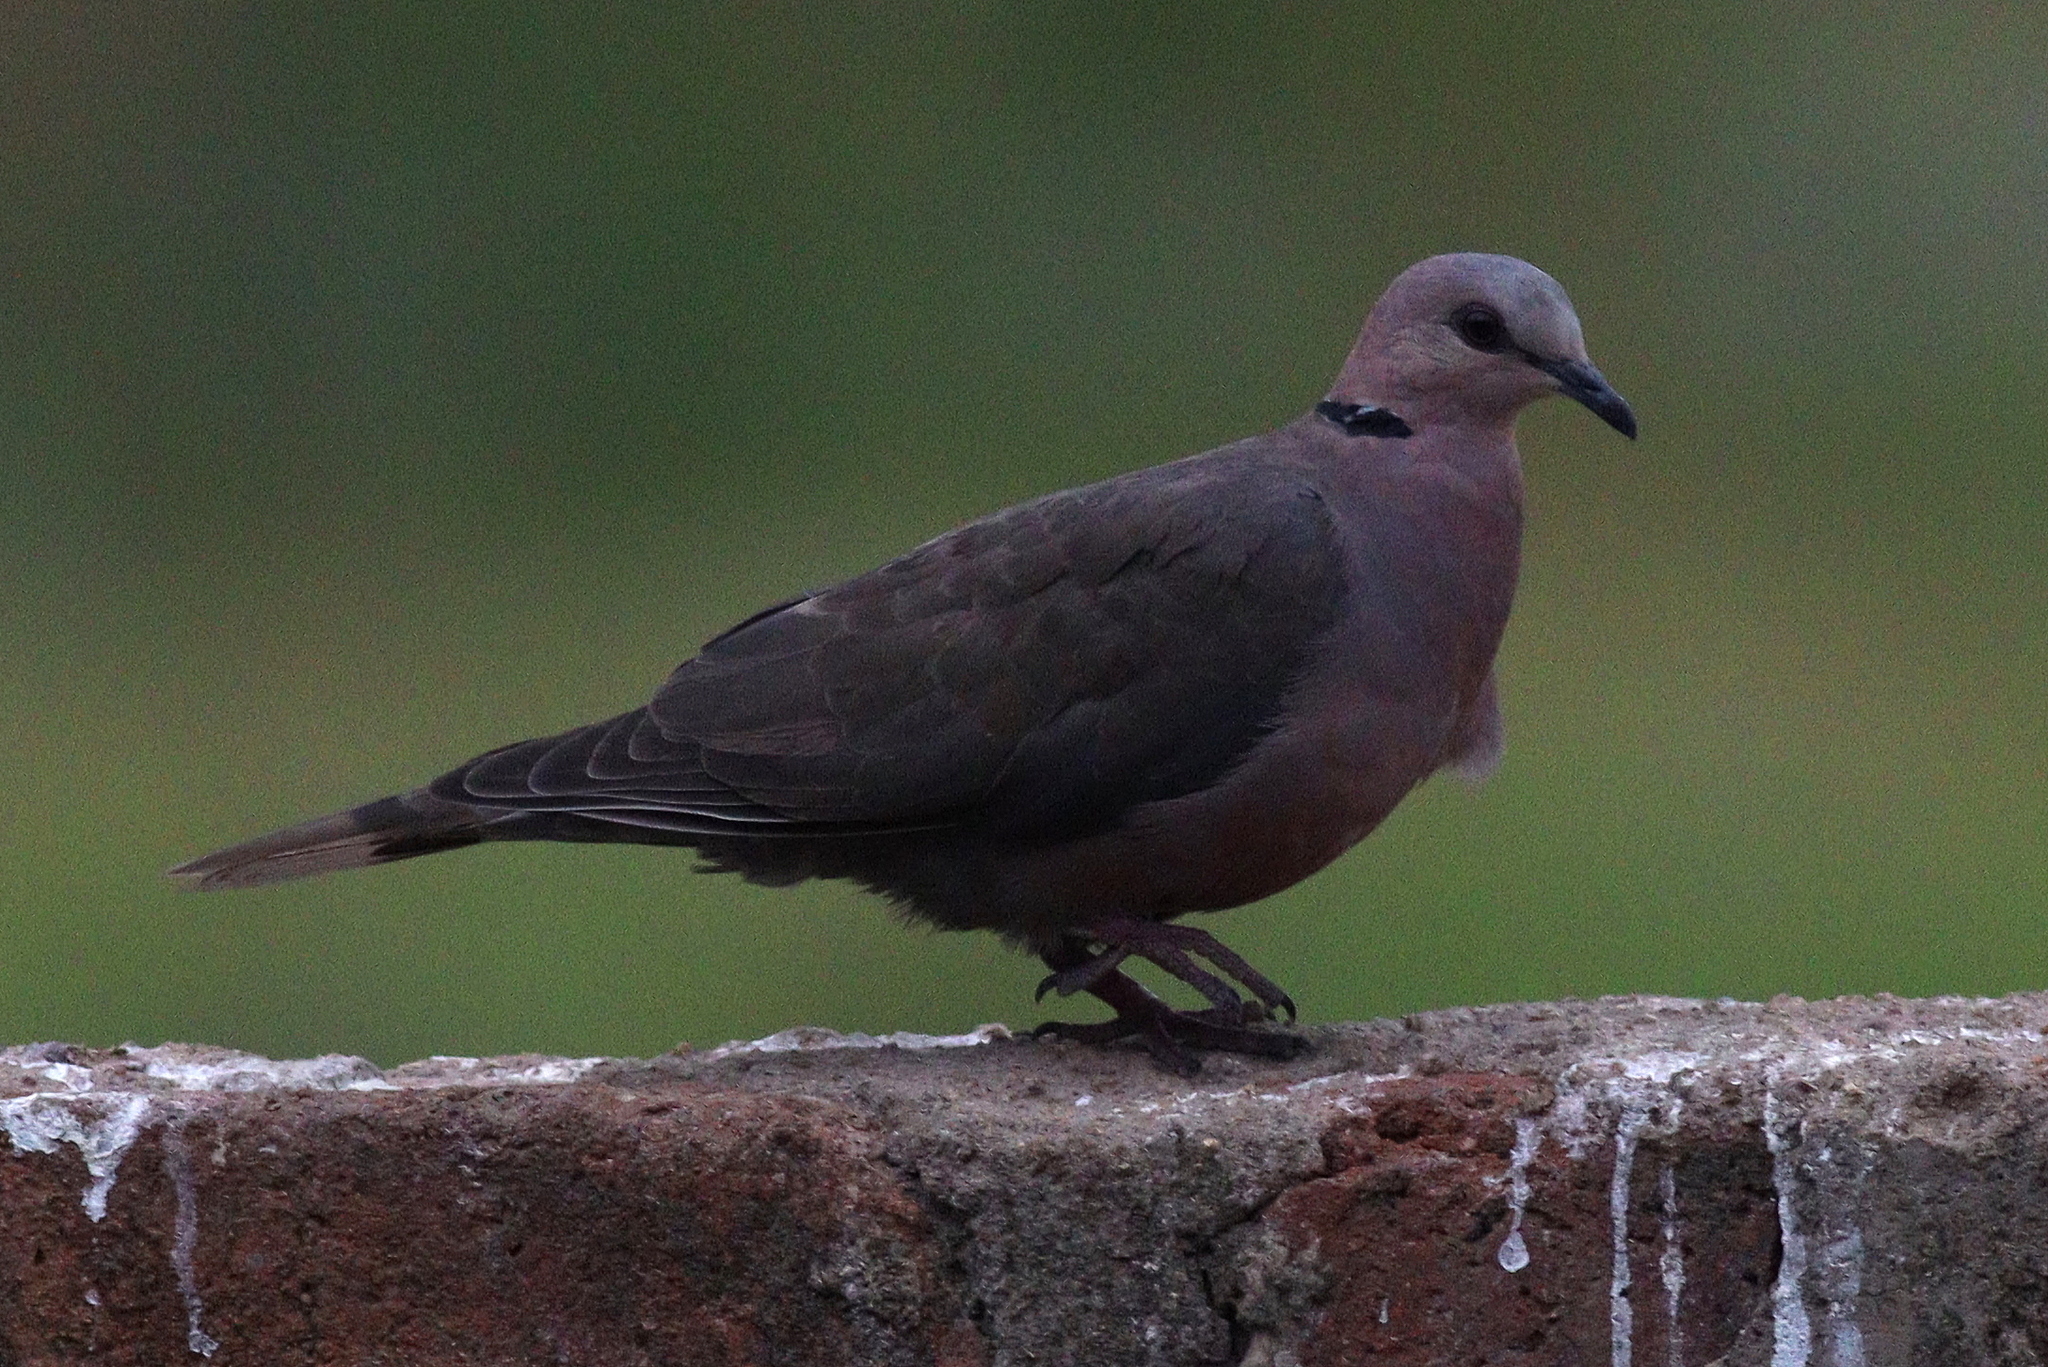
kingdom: Animalia
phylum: Chordata
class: Aves
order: Columbiformes
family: Columbidae
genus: Streptopelia
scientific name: Streptopelia semitorquata
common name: Red-eyed dove
